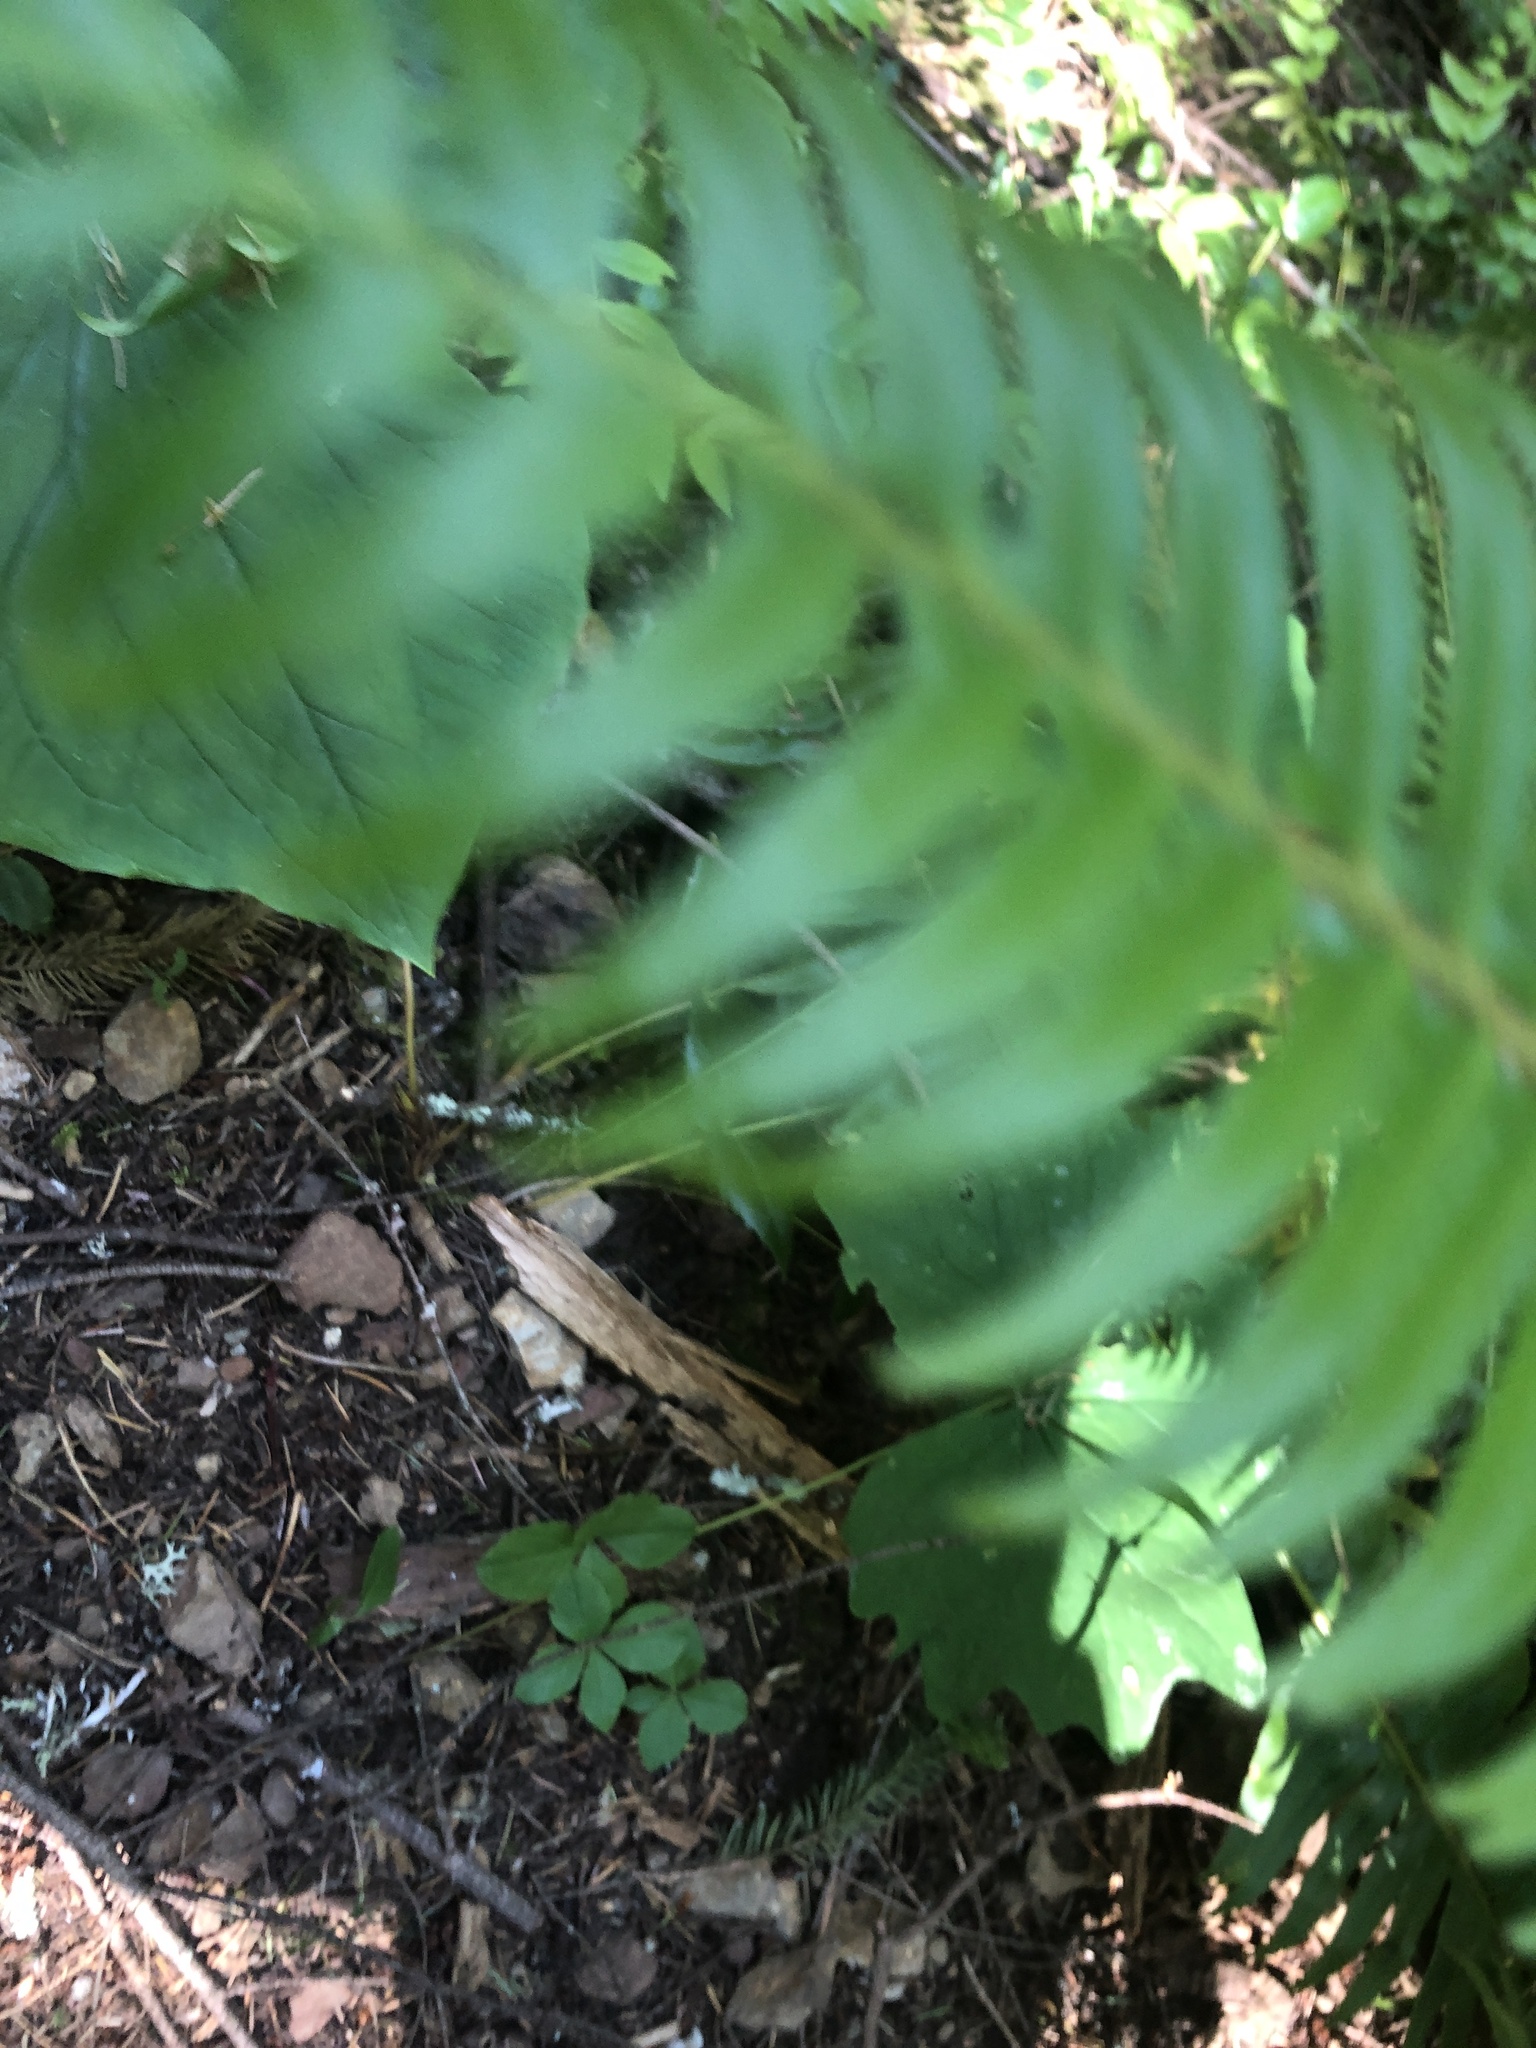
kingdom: Plantae
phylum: Tracheophyta
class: Liliopsida
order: Liliales
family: Melanthiaceae
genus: Trillium
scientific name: Trillium ovatum
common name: Pacific trillium
